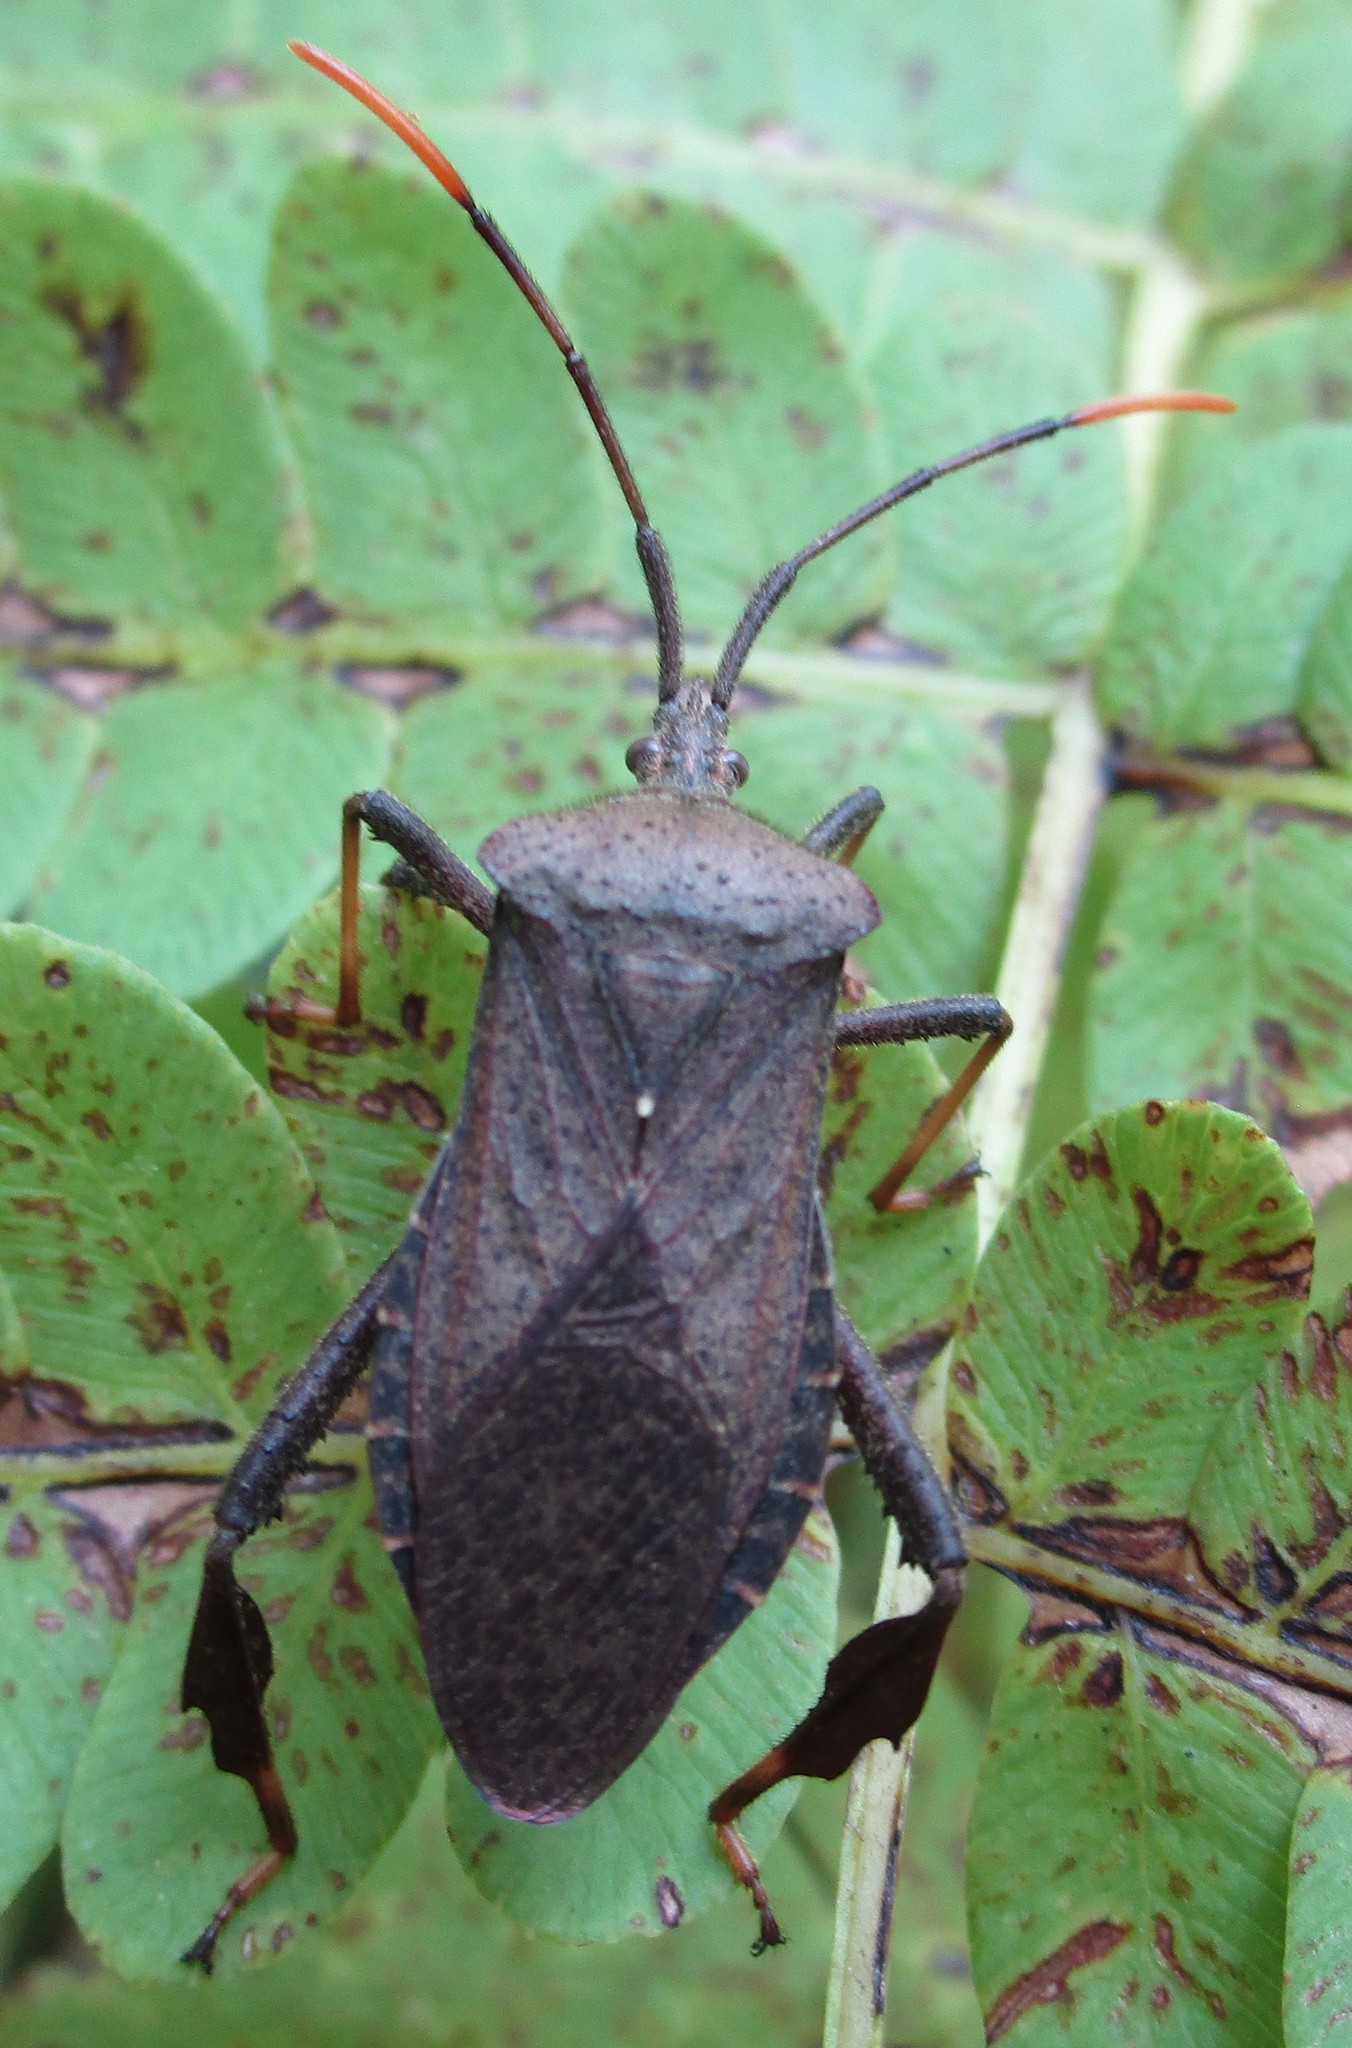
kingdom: Animalia
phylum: Arthropoda
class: Insecta
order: Hemiptera
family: Coreidae
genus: Acanthocephala
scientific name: Acanthocephala terminalis
